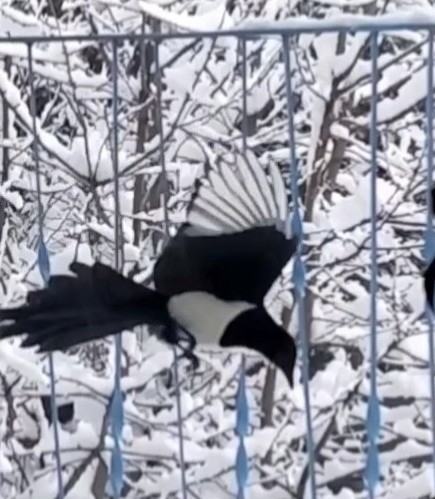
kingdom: Animalia
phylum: Chordata
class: Aves
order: Passeriformes
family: Corvidae
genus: Pica
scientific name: Pica pica
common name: Eurasian magpie
